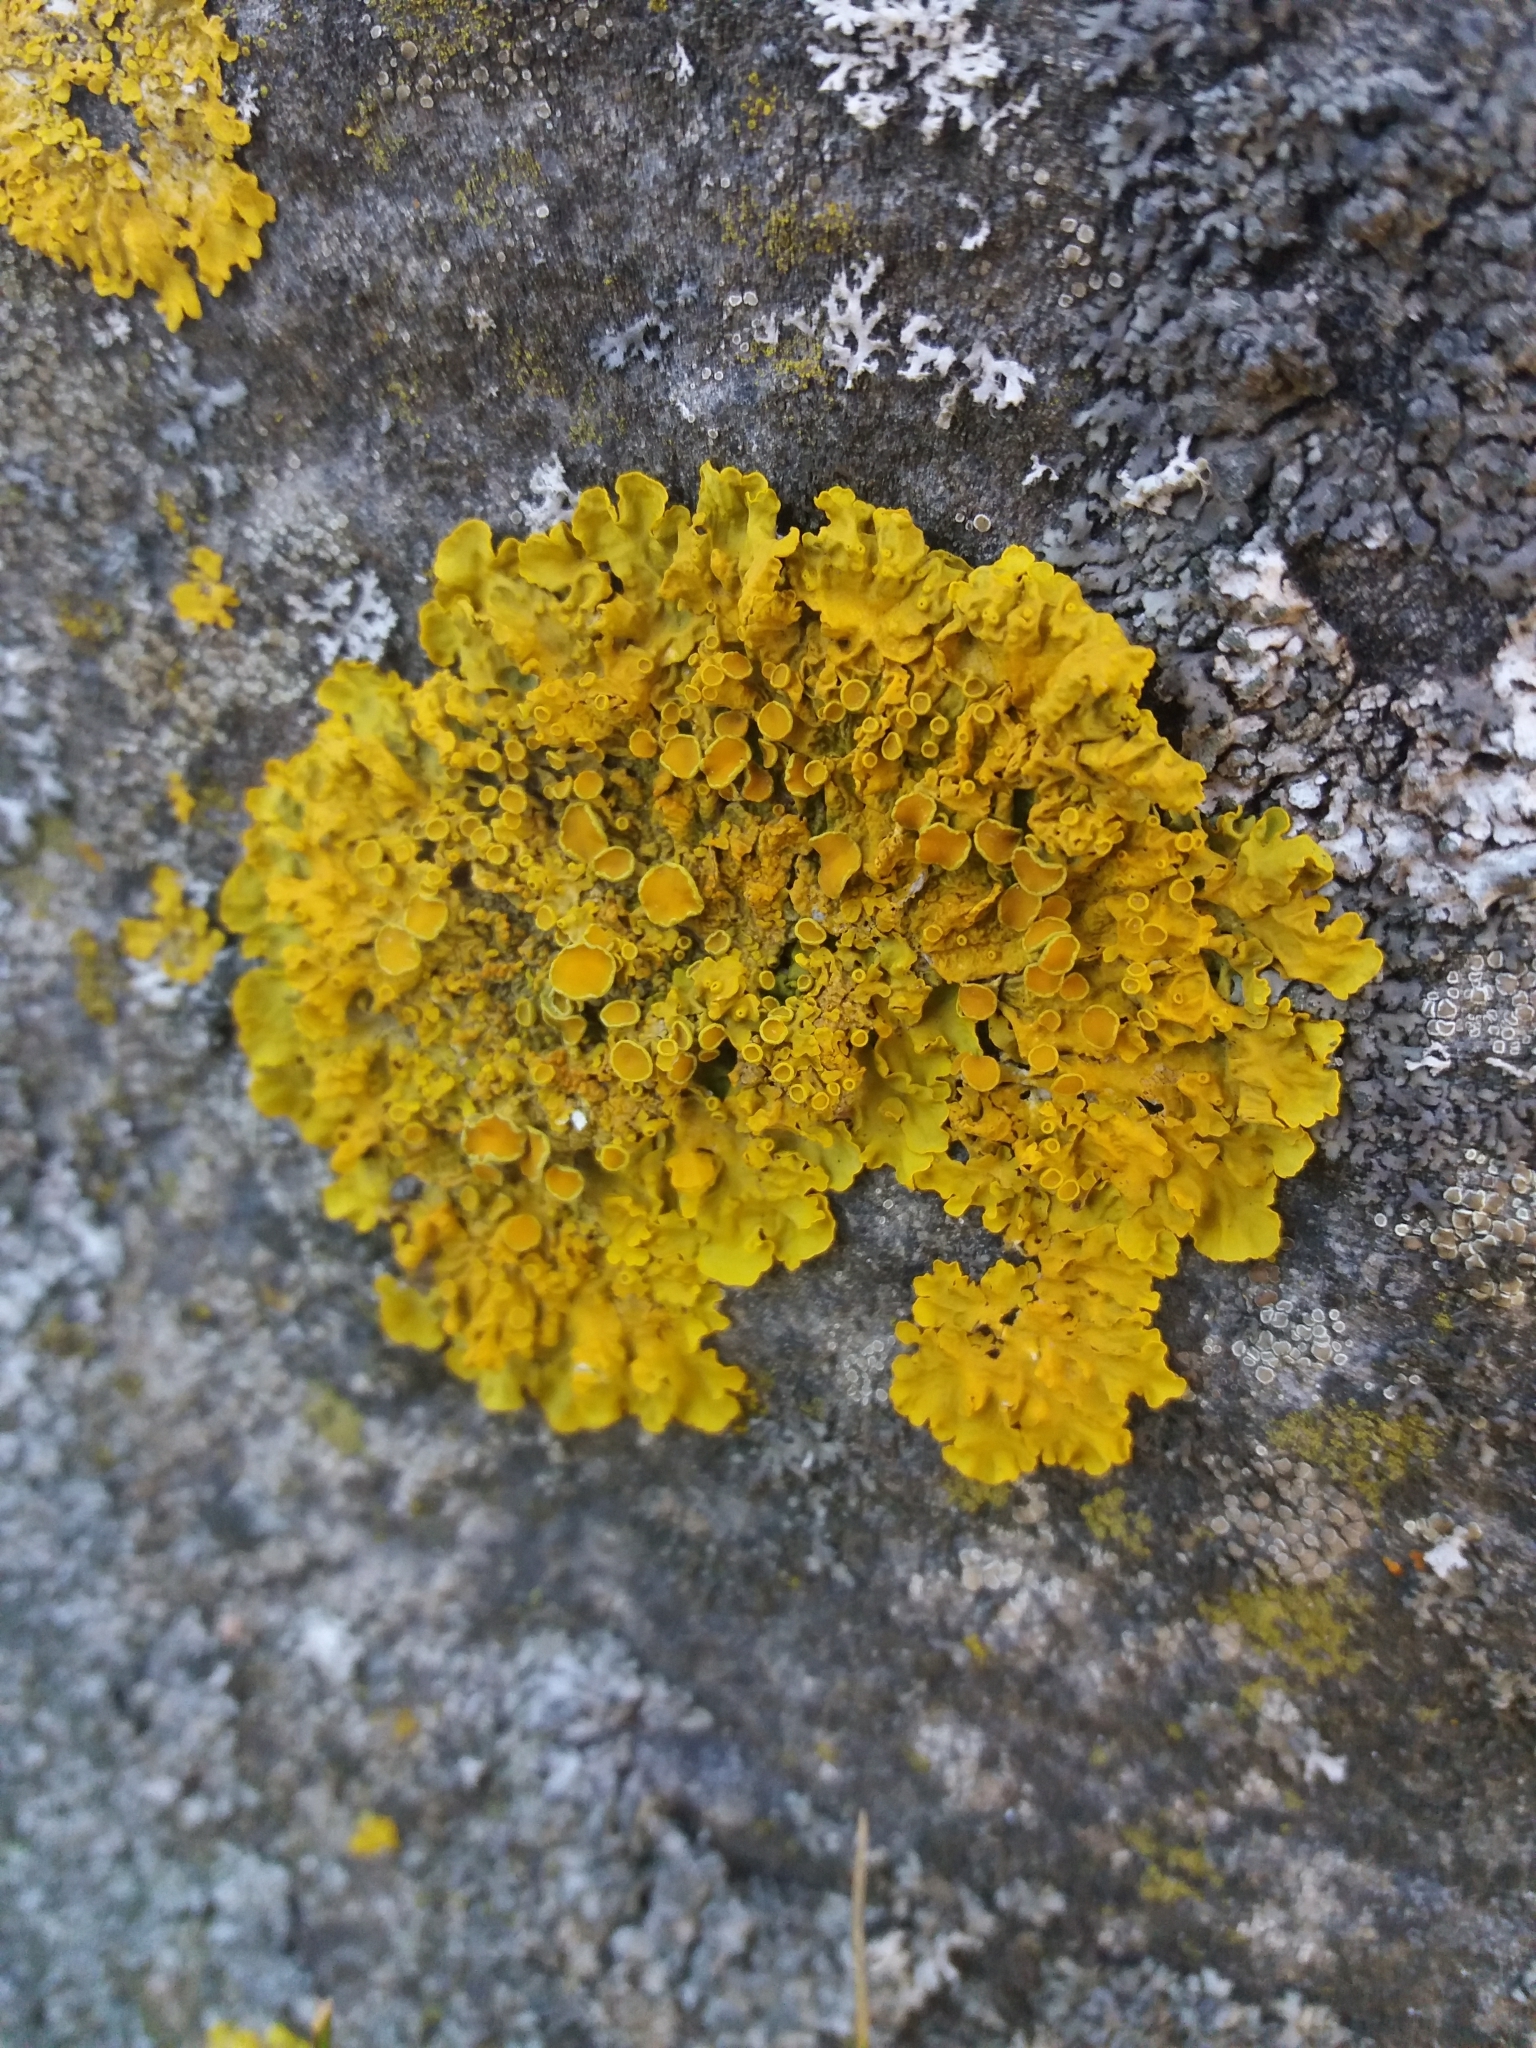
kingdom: Fungi
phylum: Ascomycota
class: Lecanoromycetes
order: Teloschistales
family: Teloschistaceae
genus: Xanthoria
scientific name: Xanthoria parietina
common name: Common orange lichen
